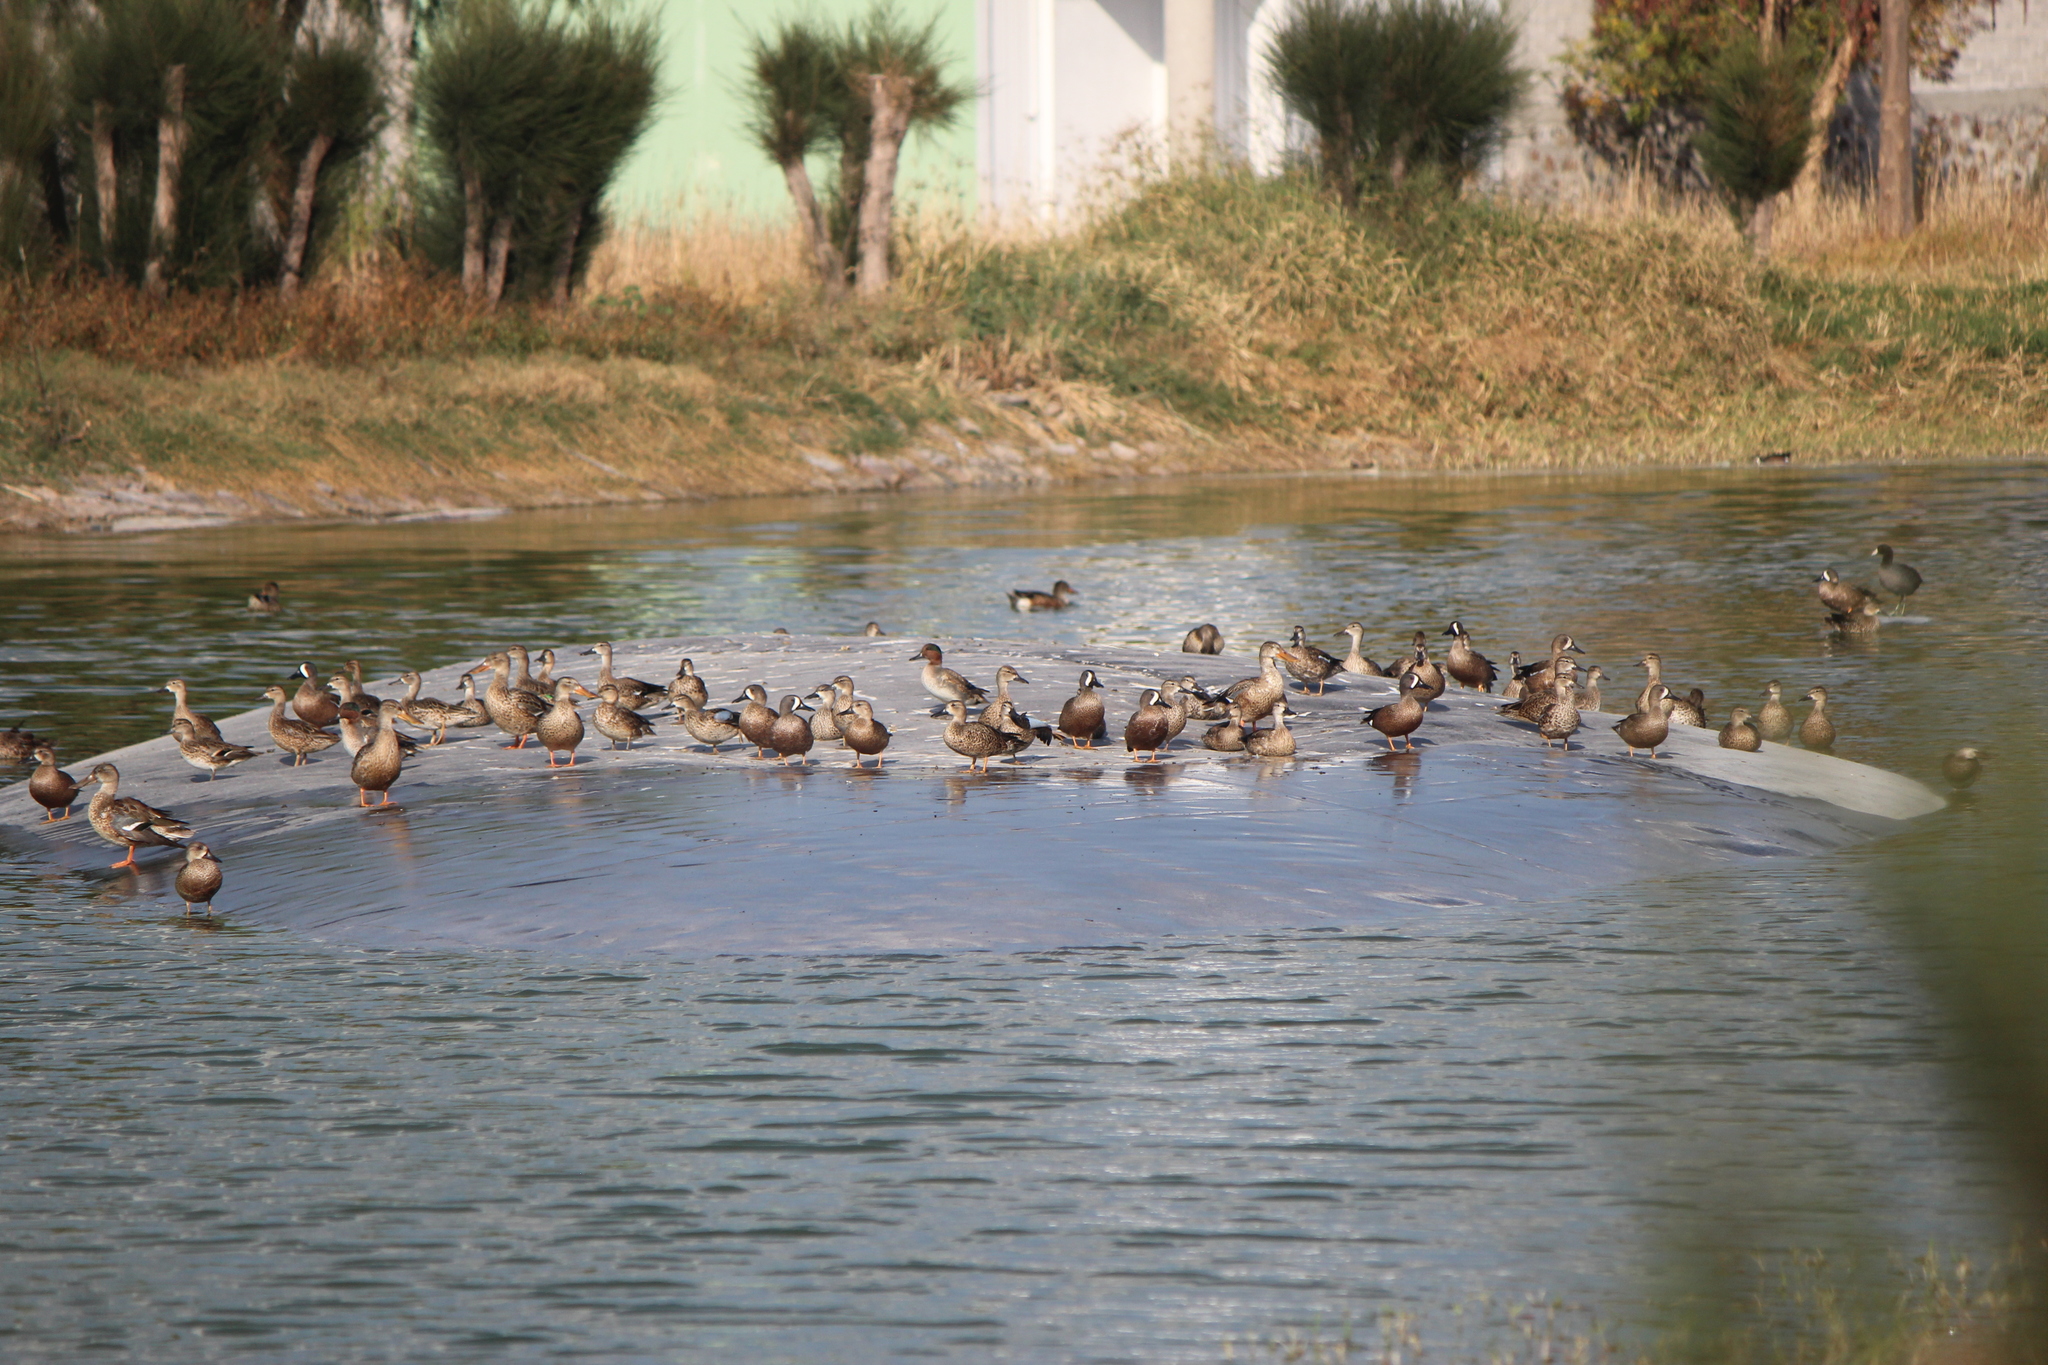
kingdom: Animalia
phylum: Chordata
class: Aves
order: Anseriformes
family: Anatidae
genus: Anas
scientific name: Anas crecca
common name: Eurasian teal
